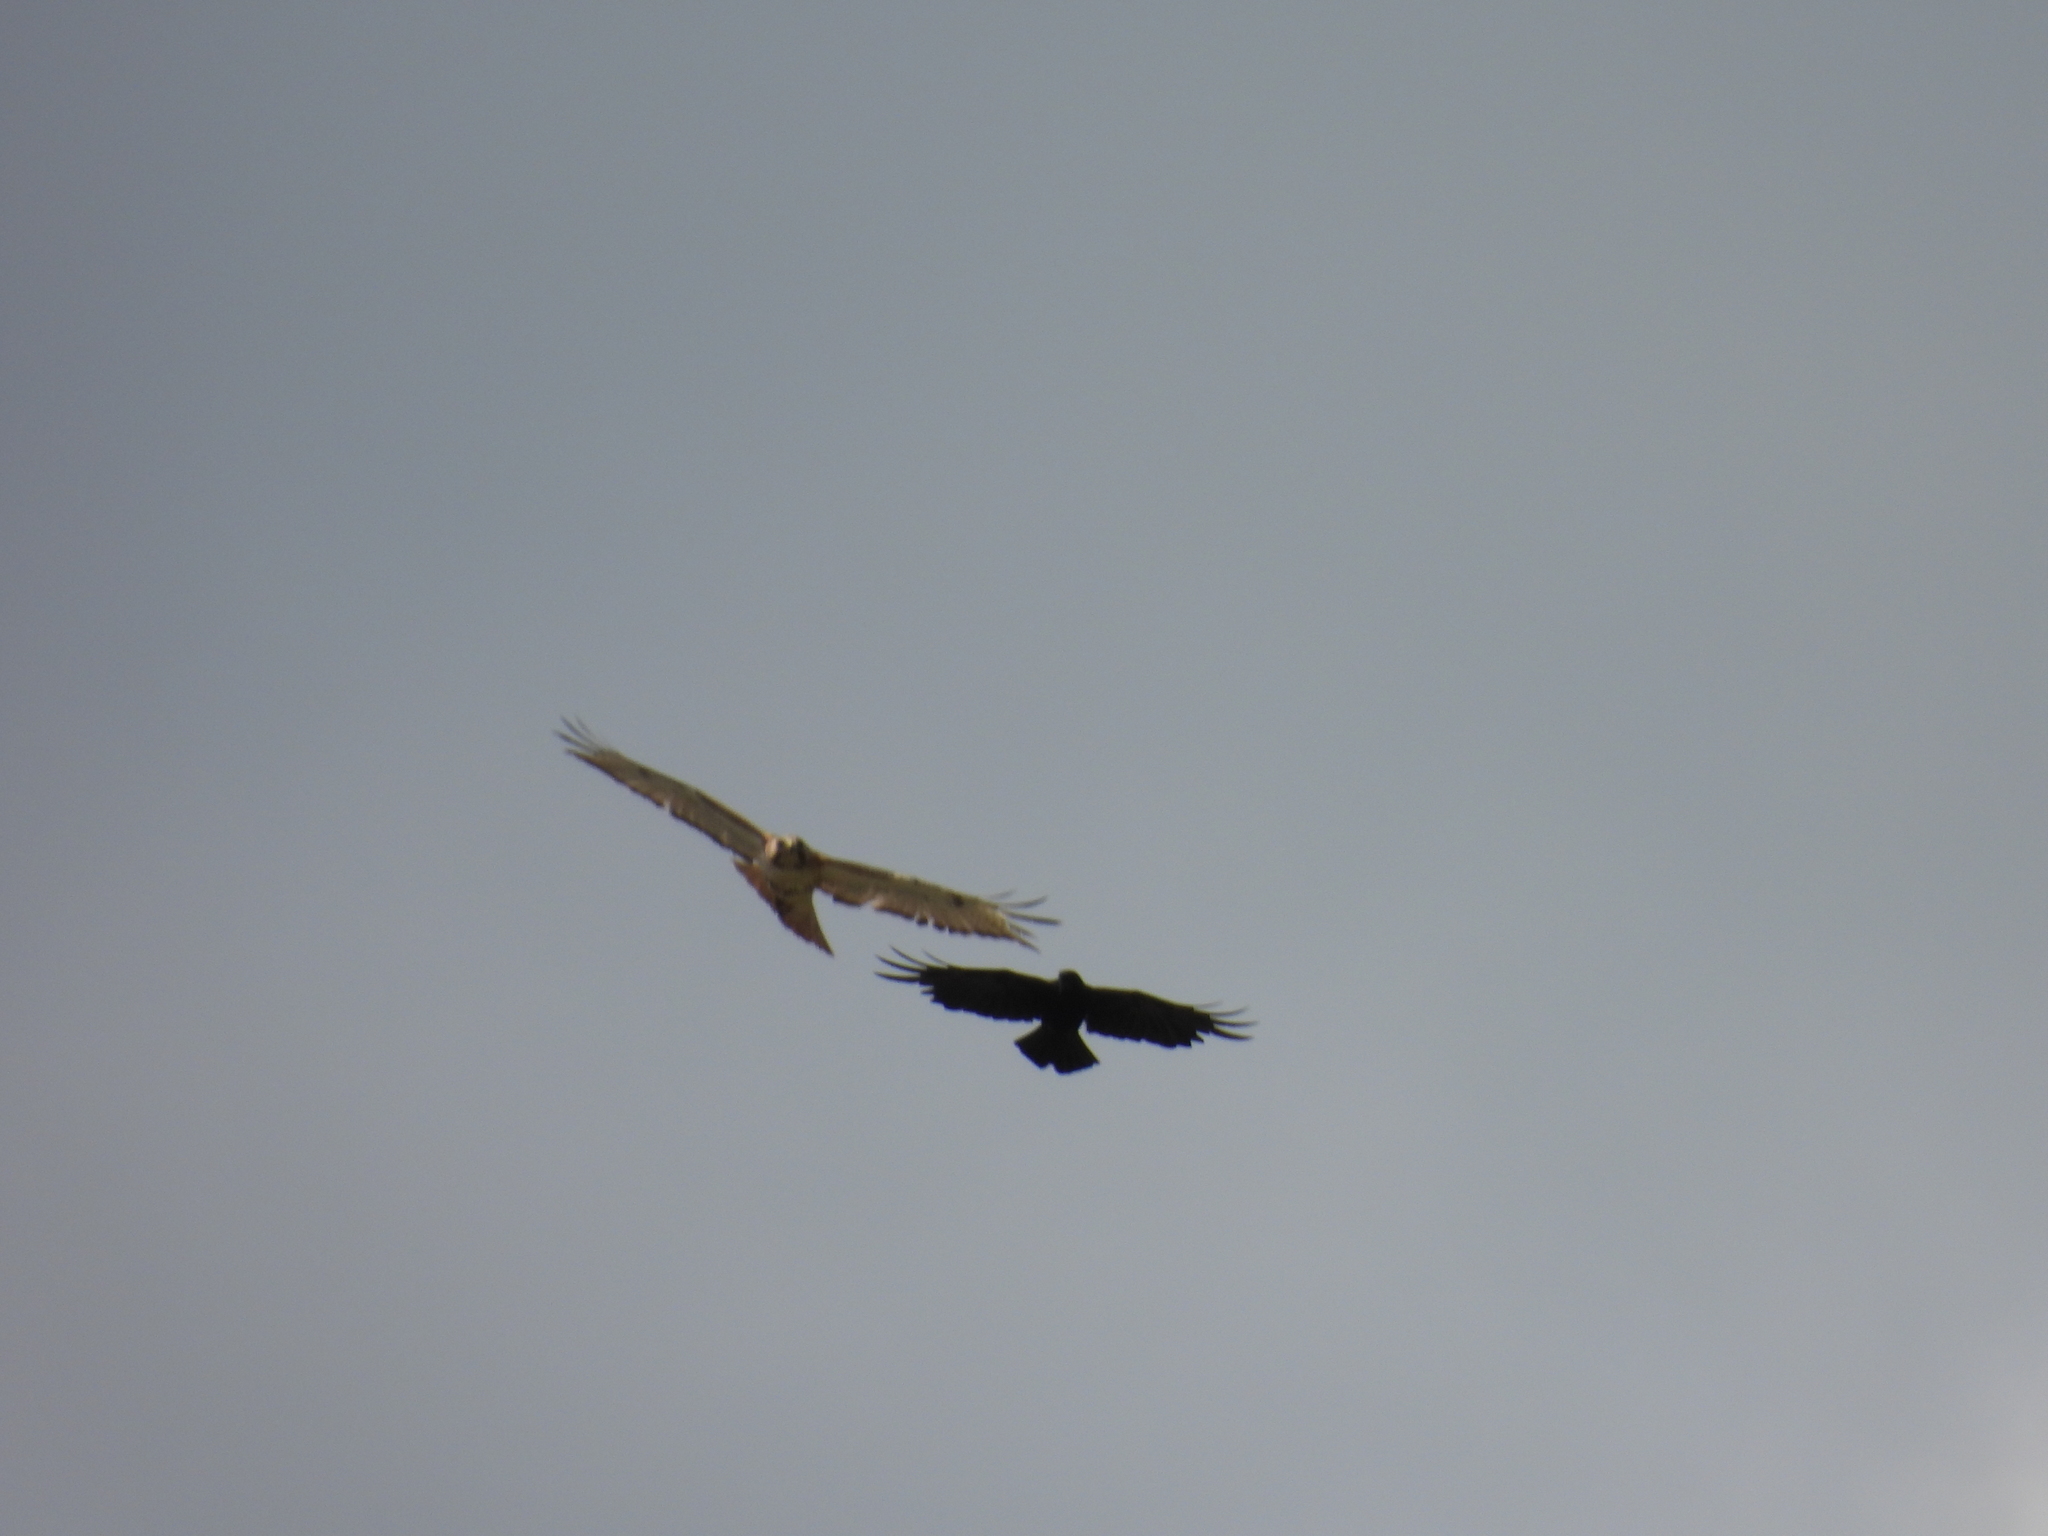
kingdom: Animalia
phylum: Chordata
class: Aves
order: Accipitriformes
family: Accipitridae
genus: Buteo
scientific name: Buteo jamaicensis
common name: Red-tailed hawk
